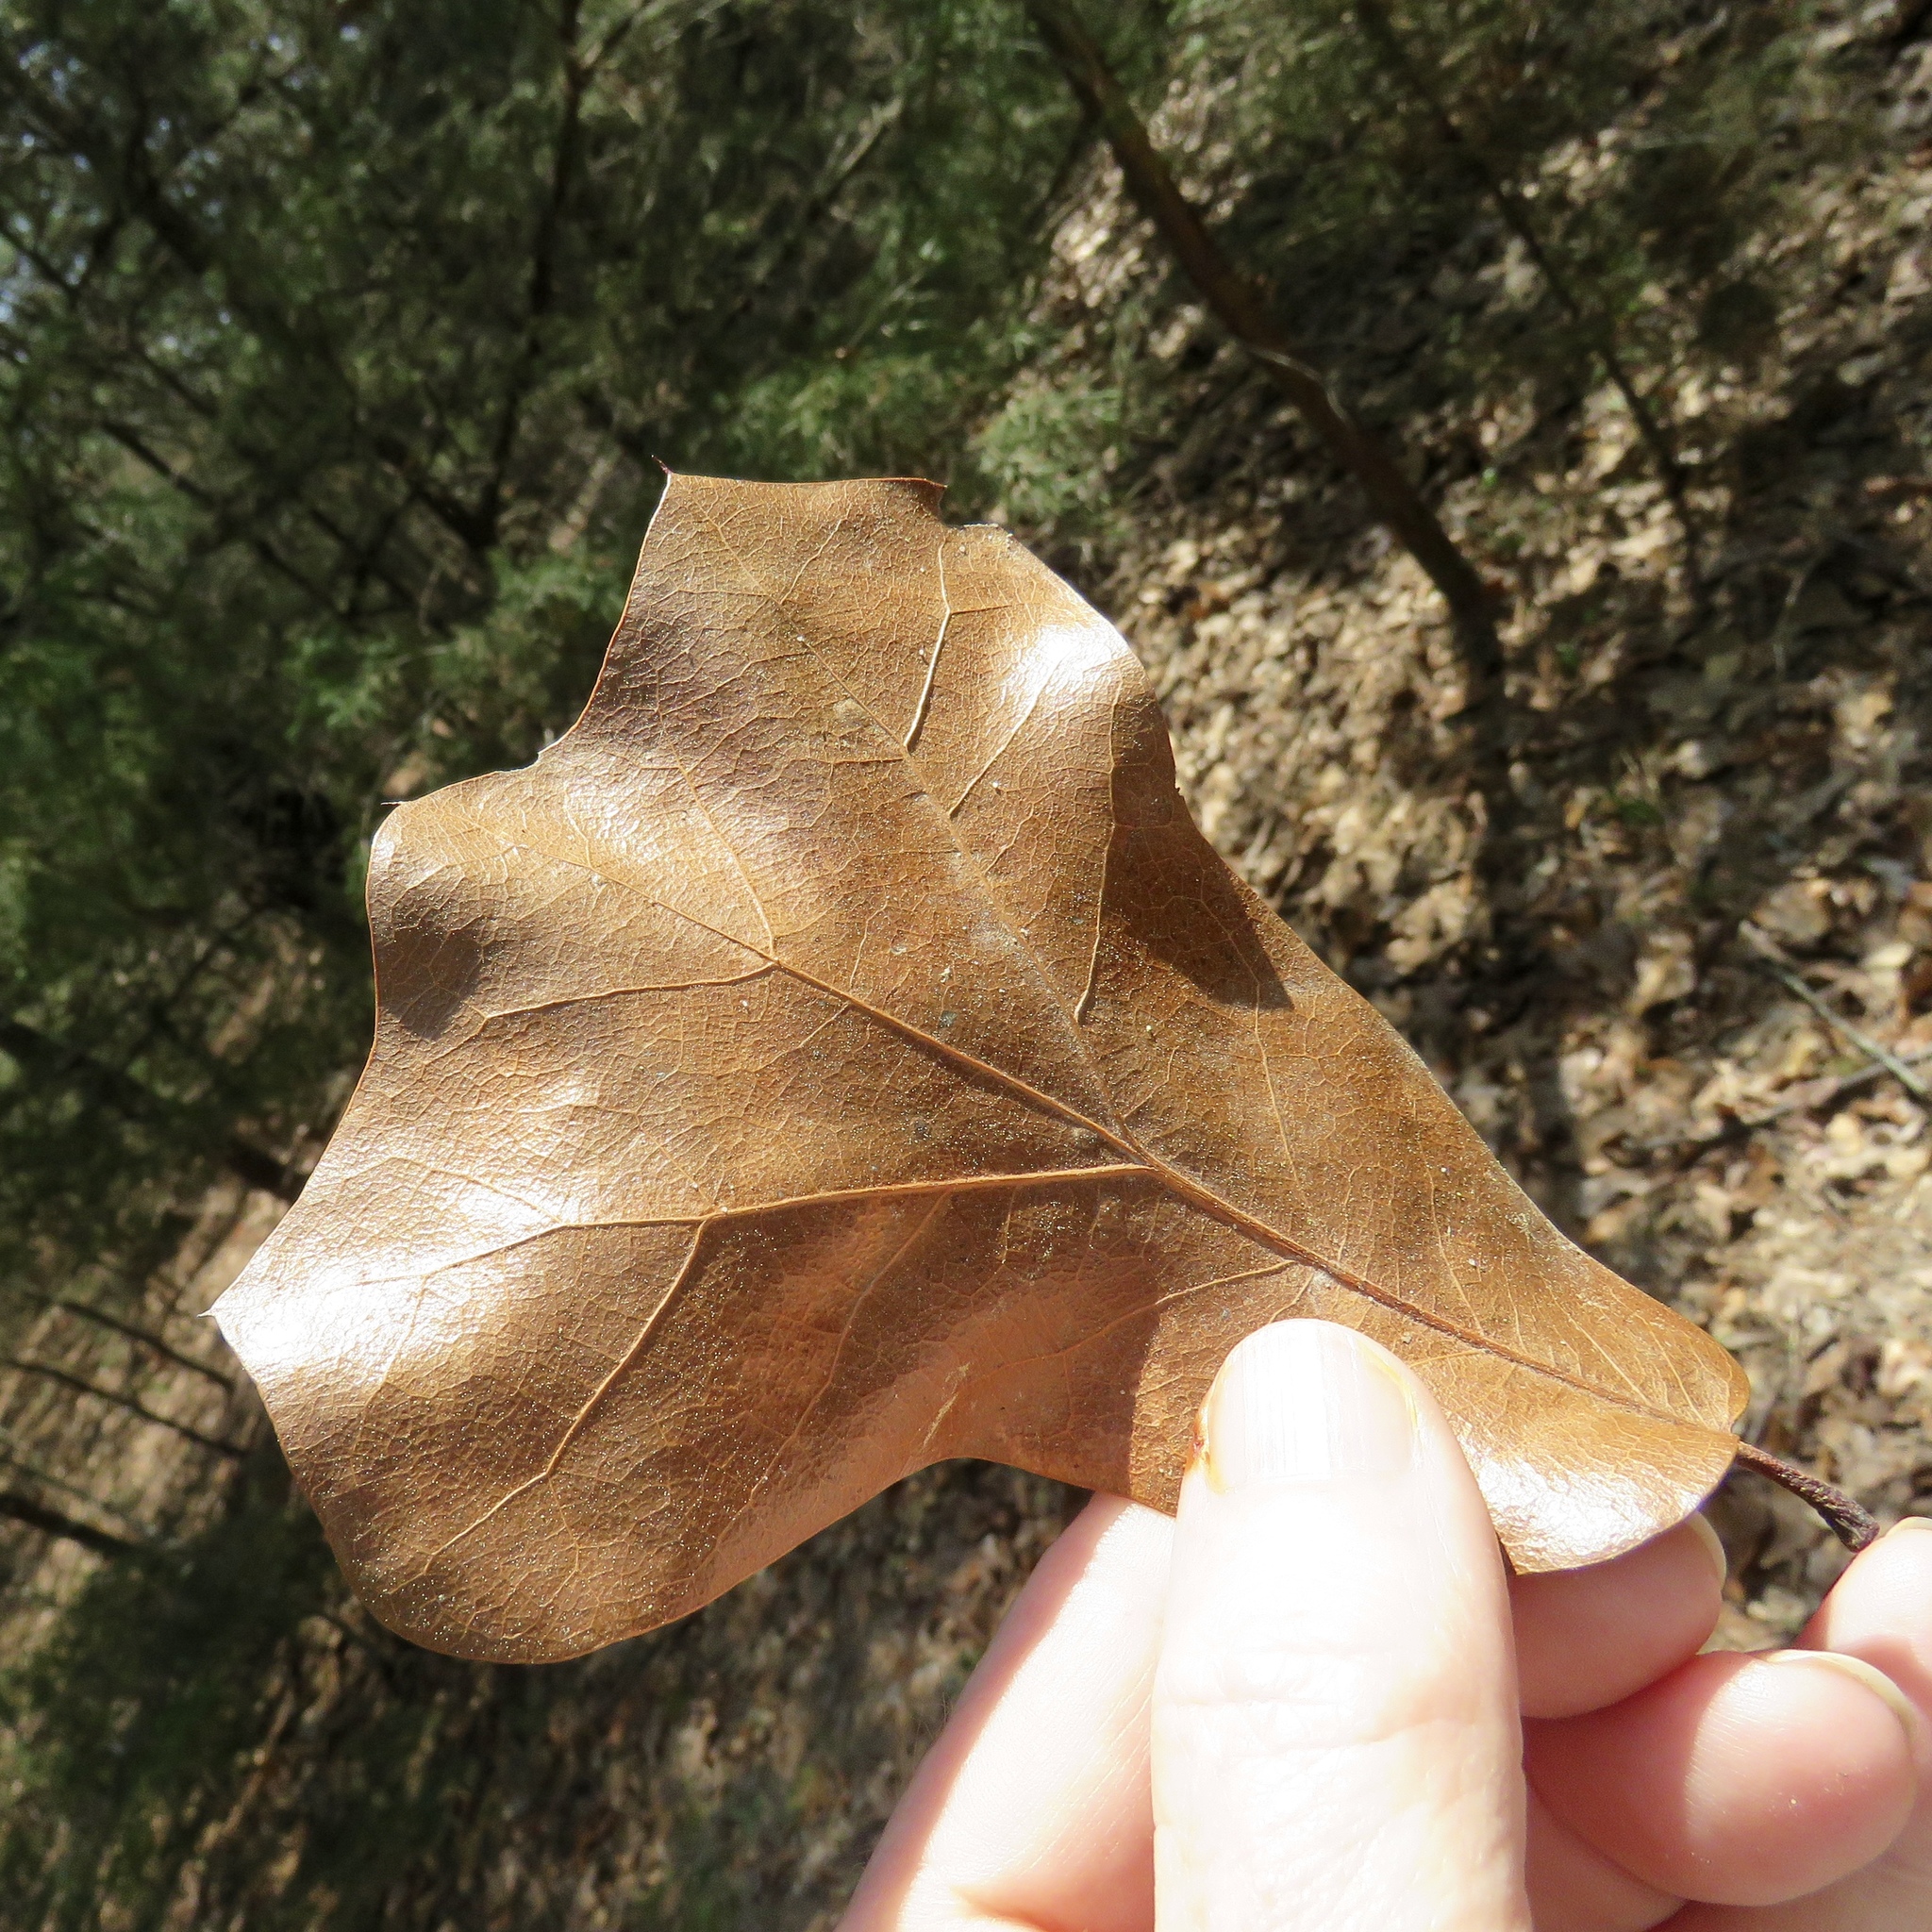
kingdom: Plantae
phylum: Tracheophyta
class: Magnoliopsida
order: Fagales
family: Fagaceae
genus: Quercus
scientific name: Quercus marilandica
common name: Blackjack oak
